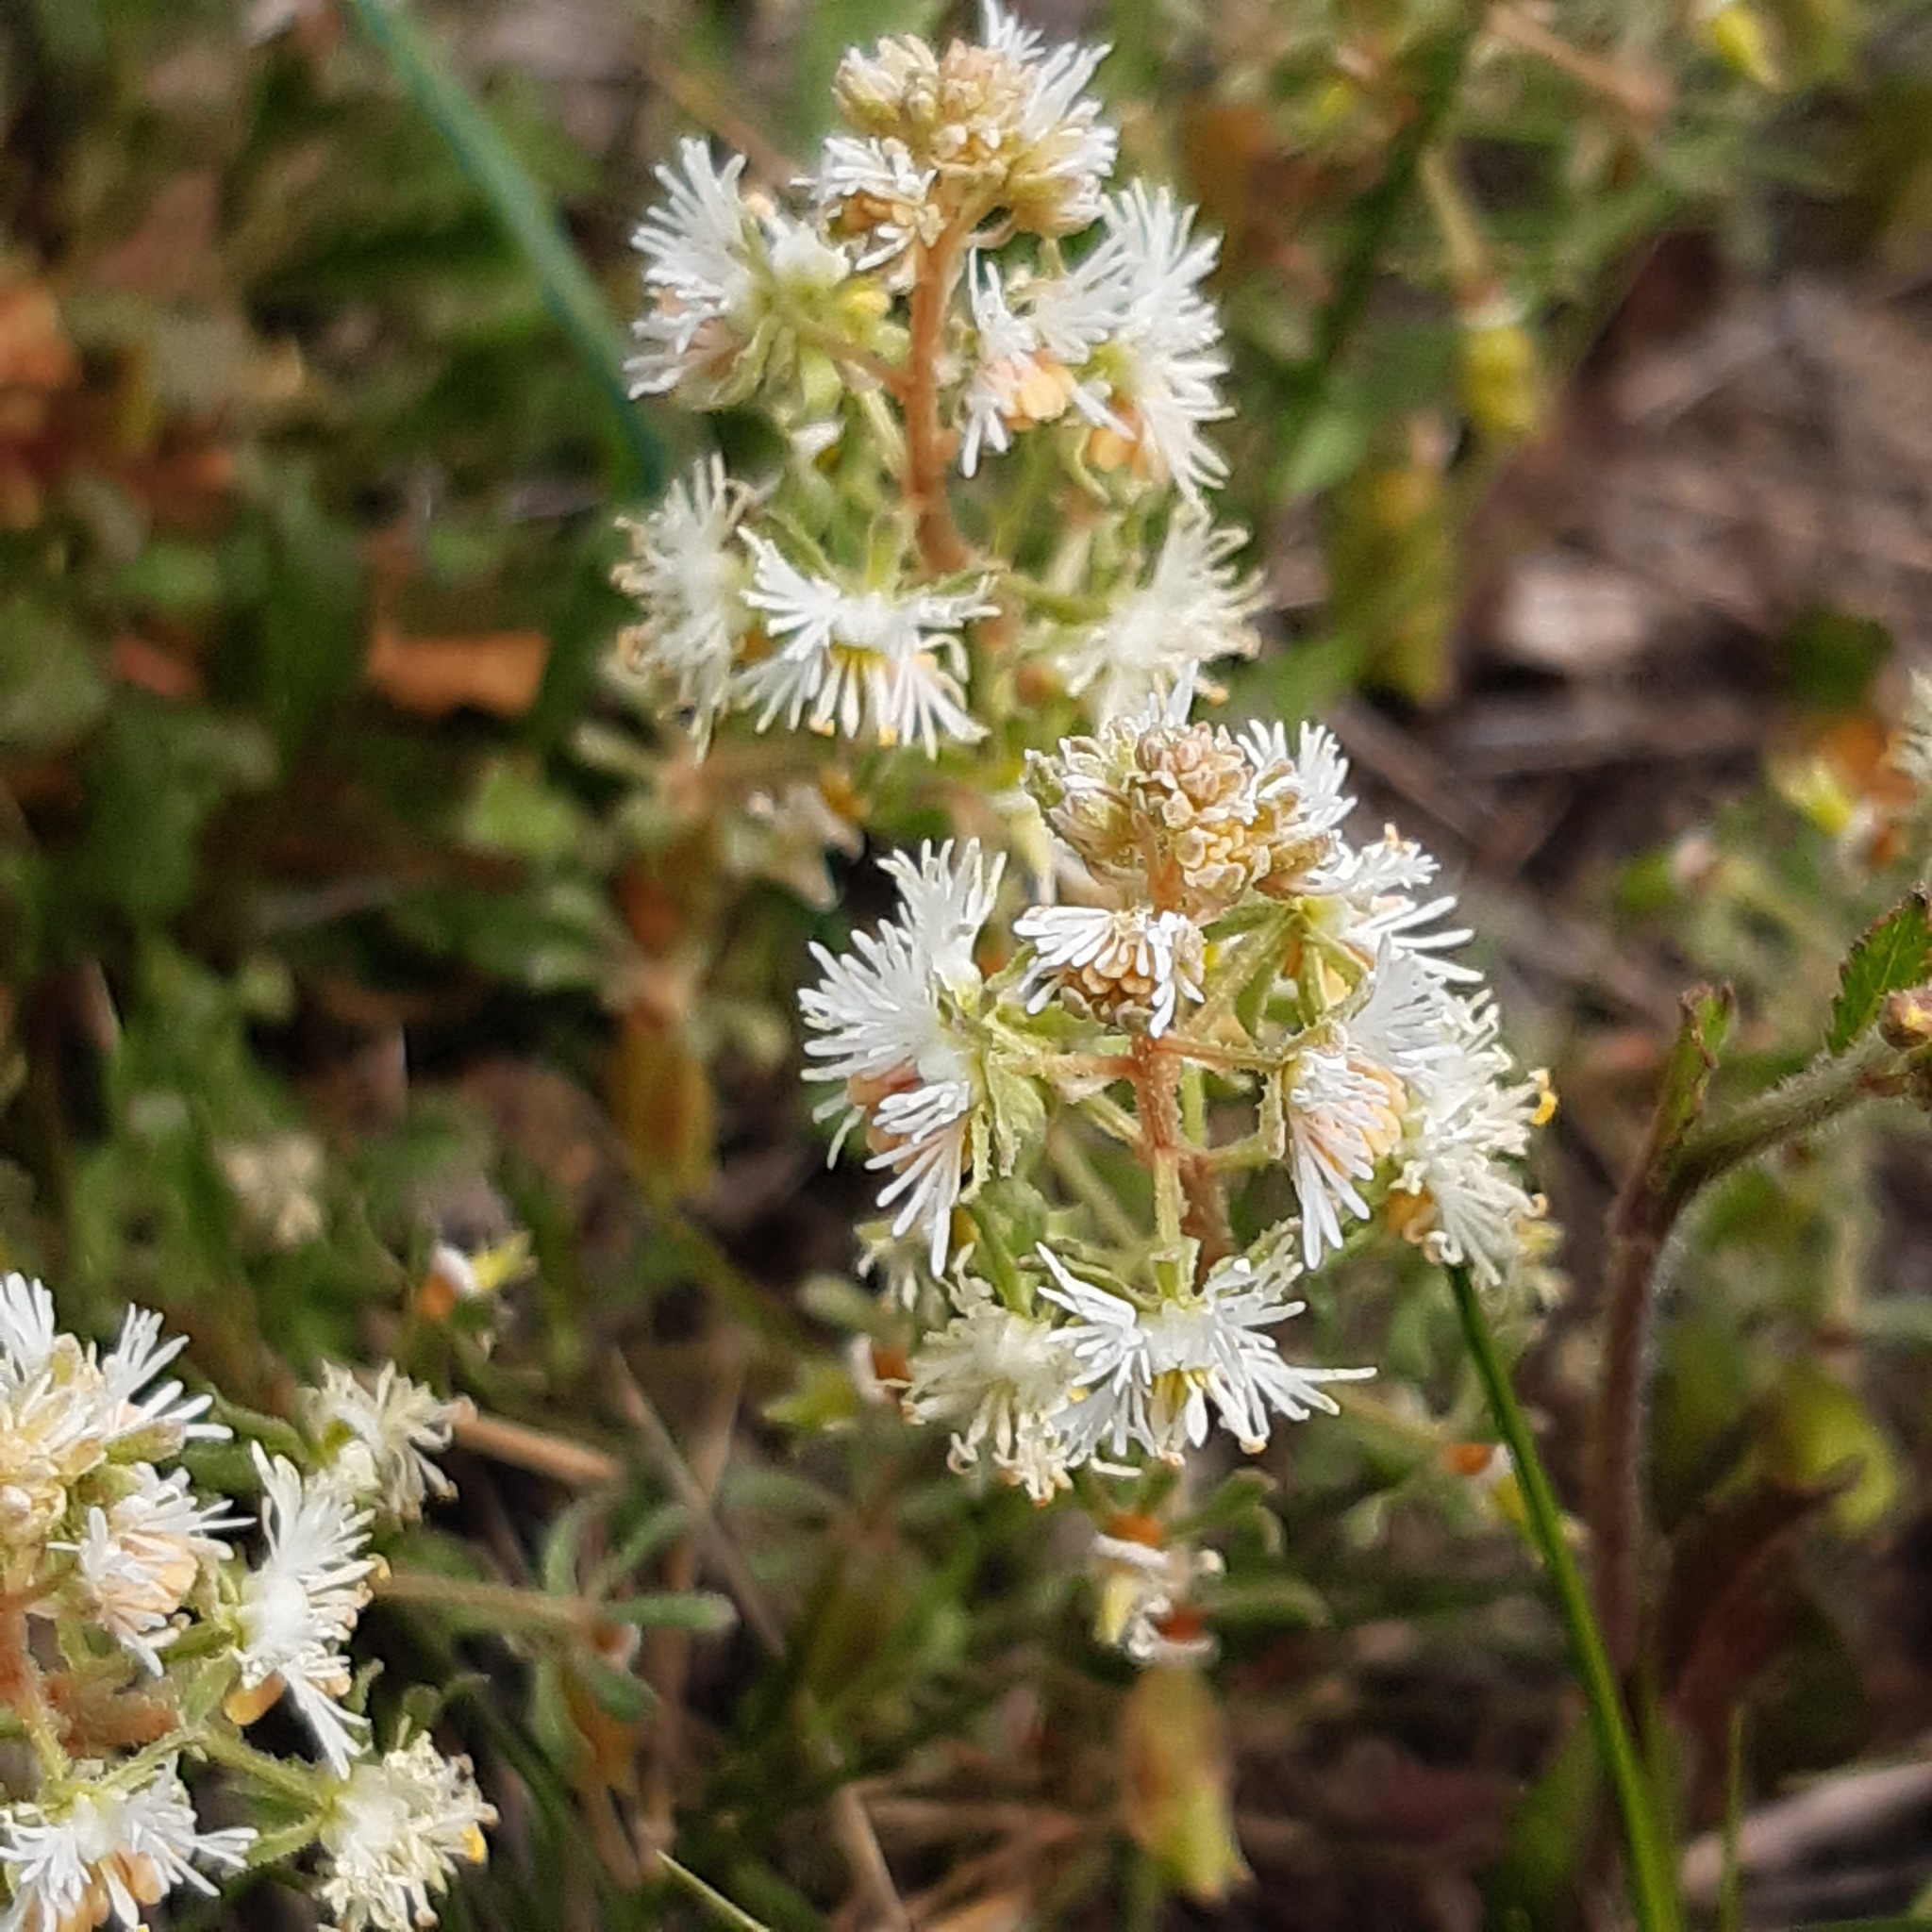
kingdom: Plantae
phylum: Tracheophyta
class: Magnoliopsida
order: Brassicales
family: Resedaceae
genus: Reseda
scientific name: Reseda phyteuma
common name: Corn mignonette
